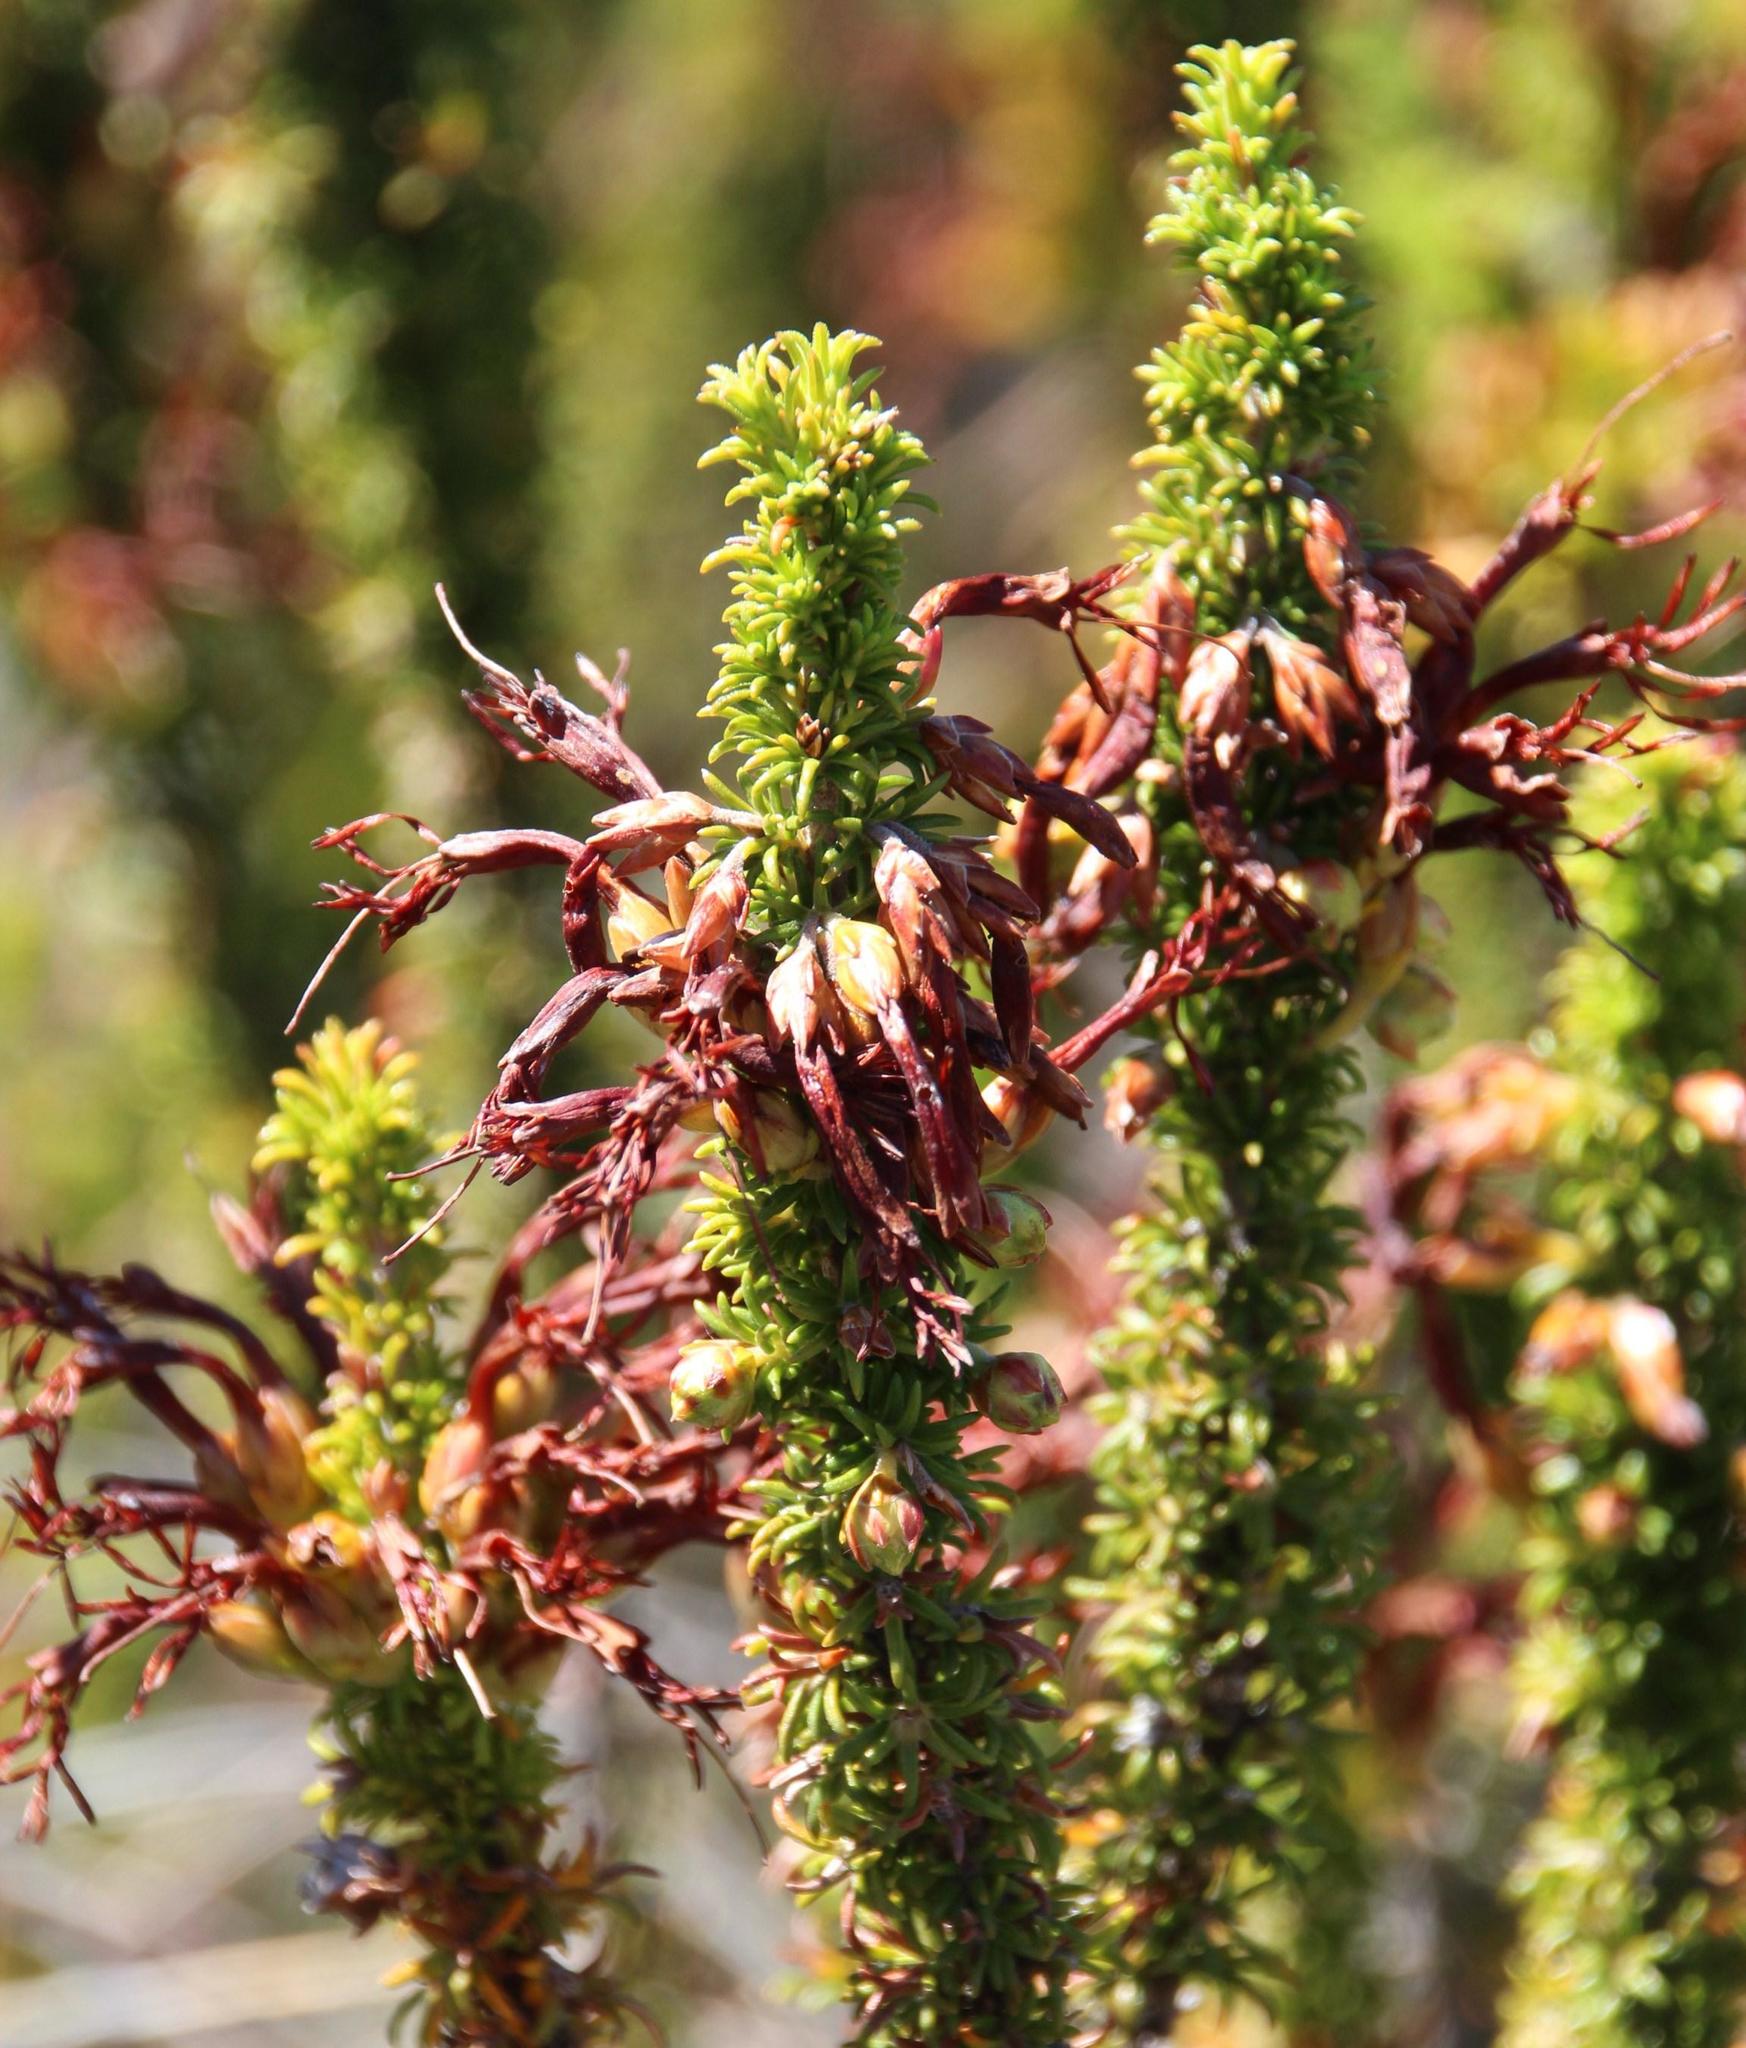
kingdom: Plantae
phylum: Tracheophyta
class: Magnoliopsida
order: Ericales
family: Ericaceae
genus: Erica
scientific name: Erica coccinea
